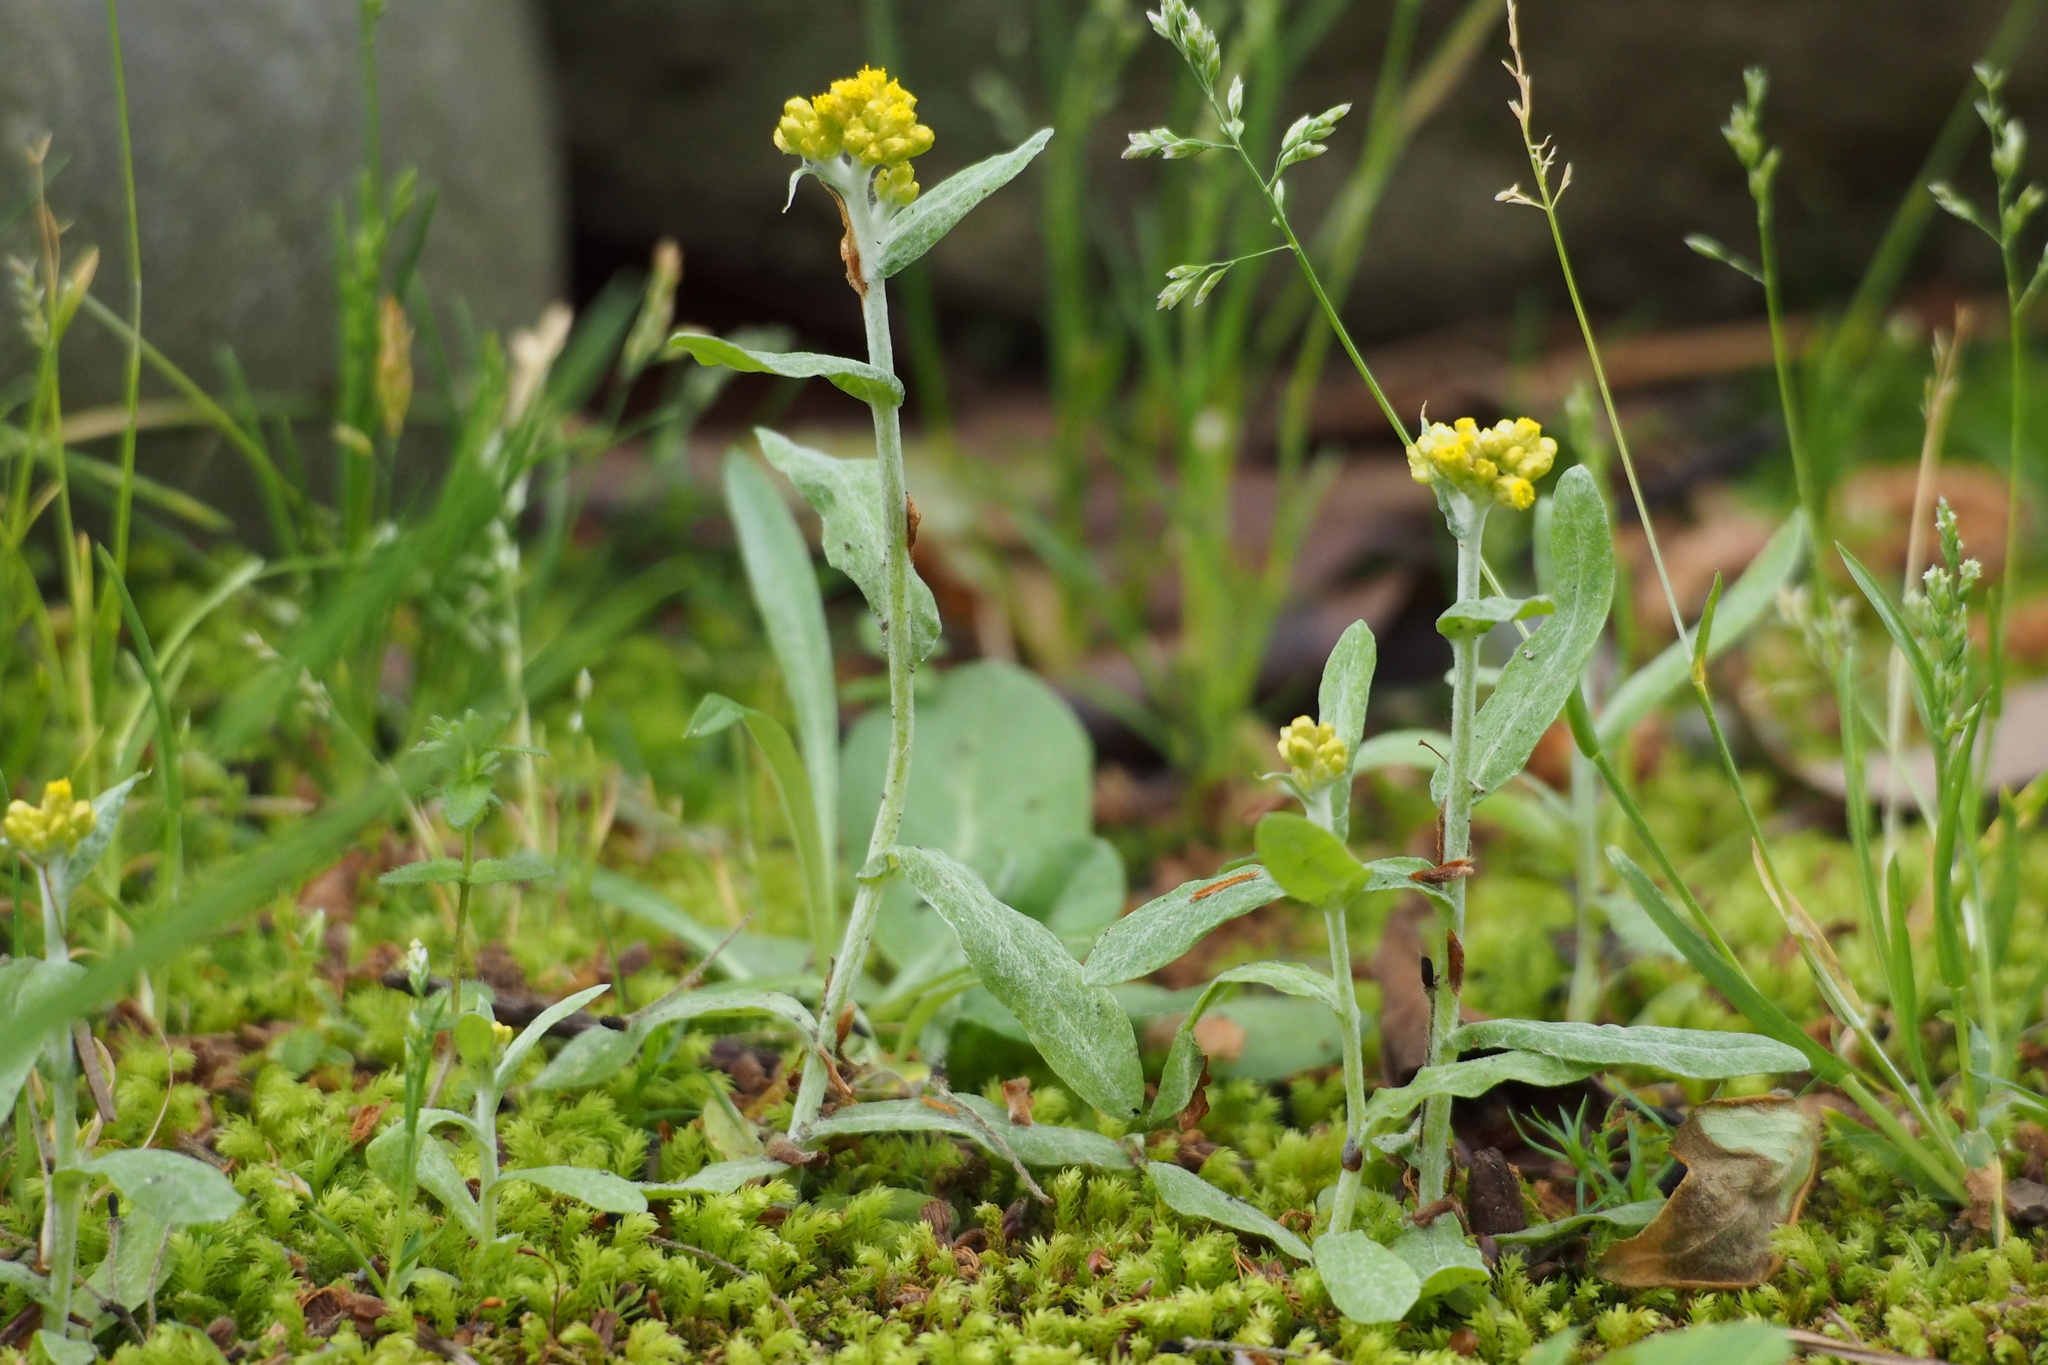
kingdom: Plantae
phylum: Tracheophyta
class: Magnoliopsida
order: Asterales
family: Asteraceae
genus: Pseudognaphalium
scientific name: Pseudognaphalium affine
